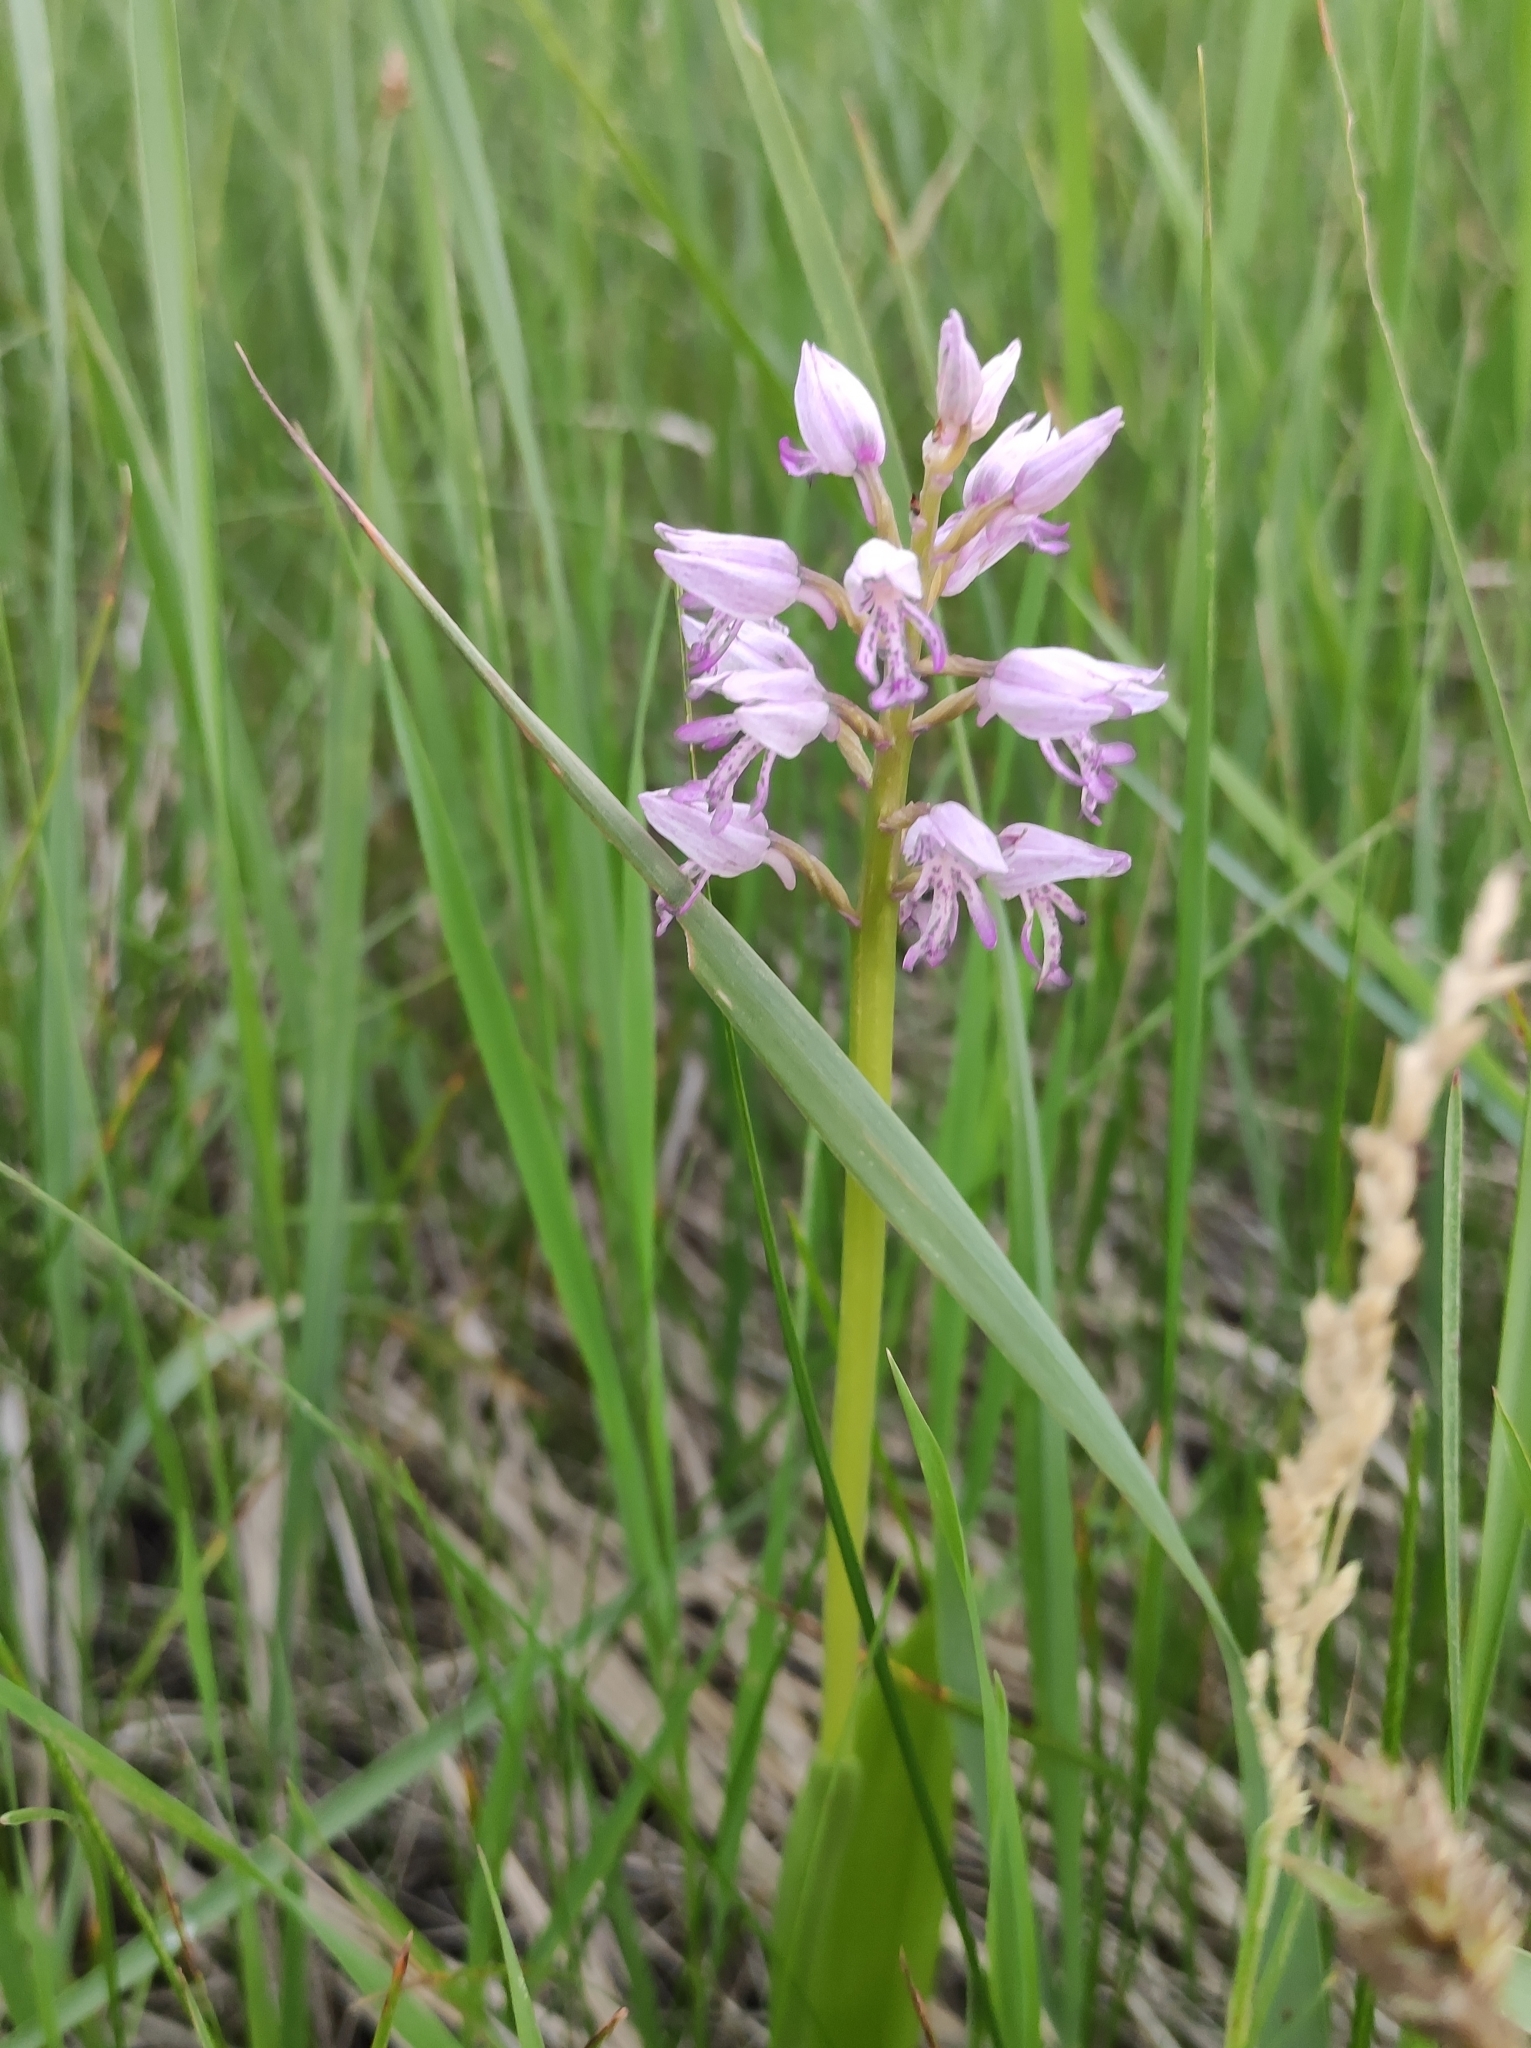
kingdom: Plantae
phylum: Tracheophyta
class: Liliopsida
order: Asparagales
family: Orchidaceae
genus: Orchis
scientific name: Orchis militaris
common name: Military orchid
